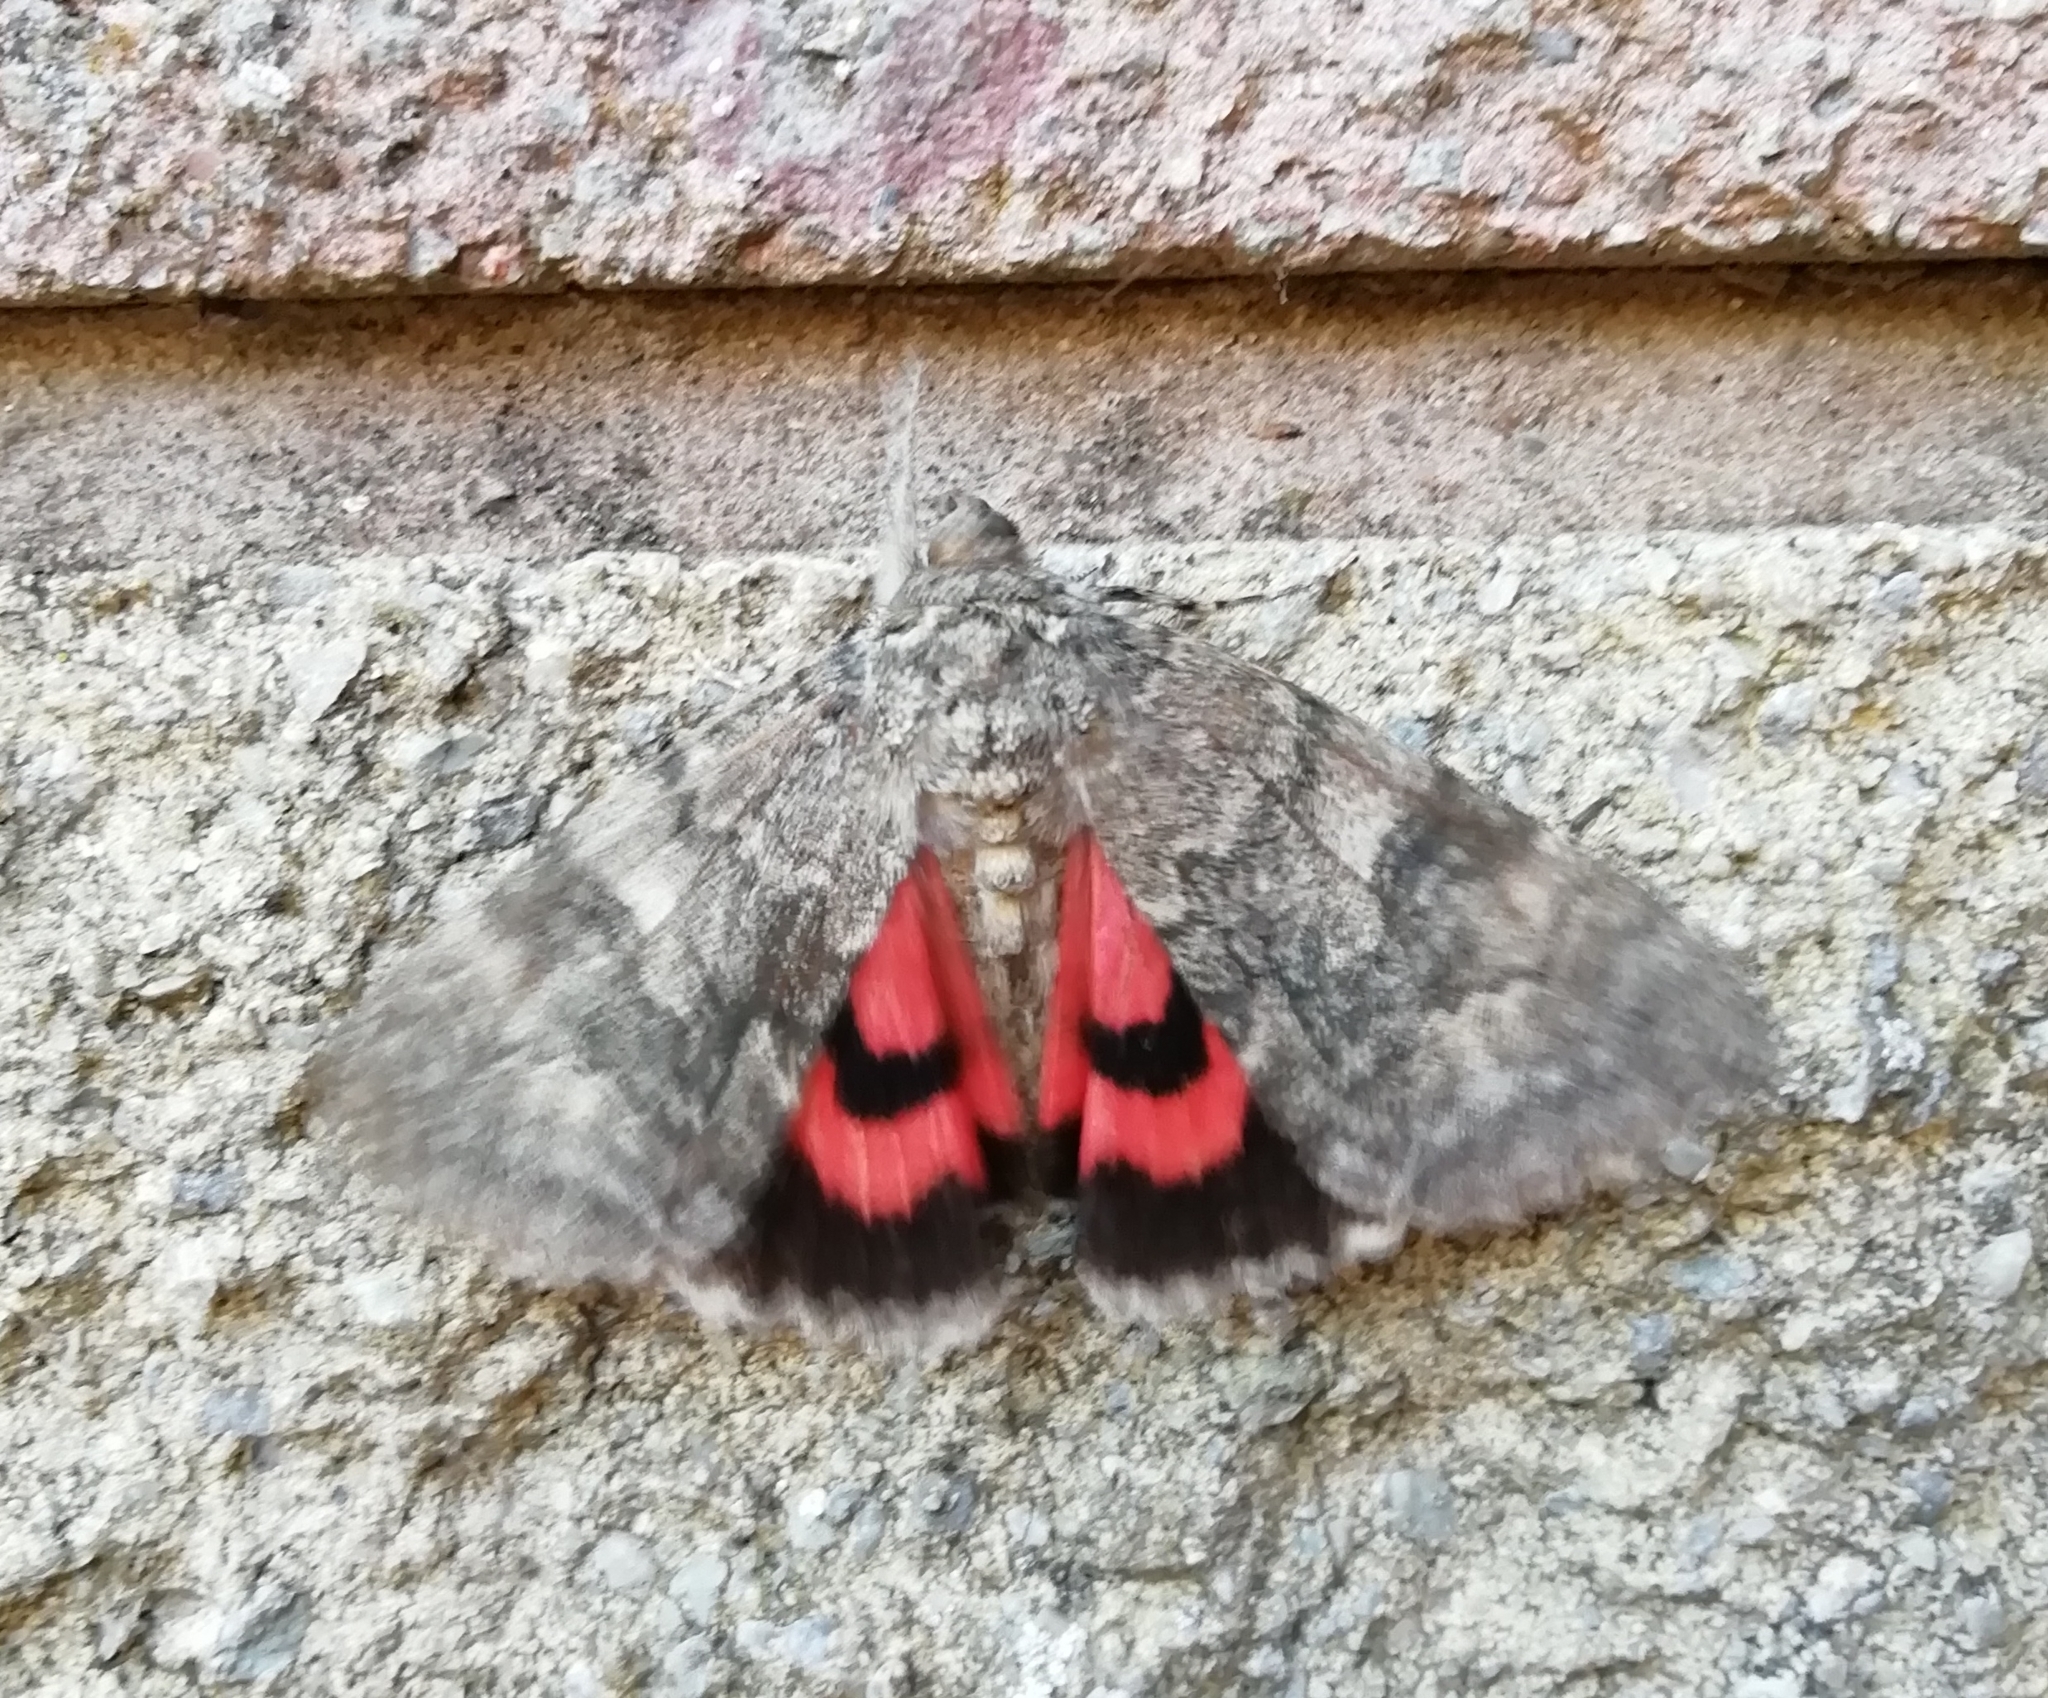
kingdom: Animalia
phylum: Arthropoda
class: Insecta
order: Lepidoptera
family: Erebidae
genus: Catocala
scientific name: Catocala nupta
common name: Red underwing
